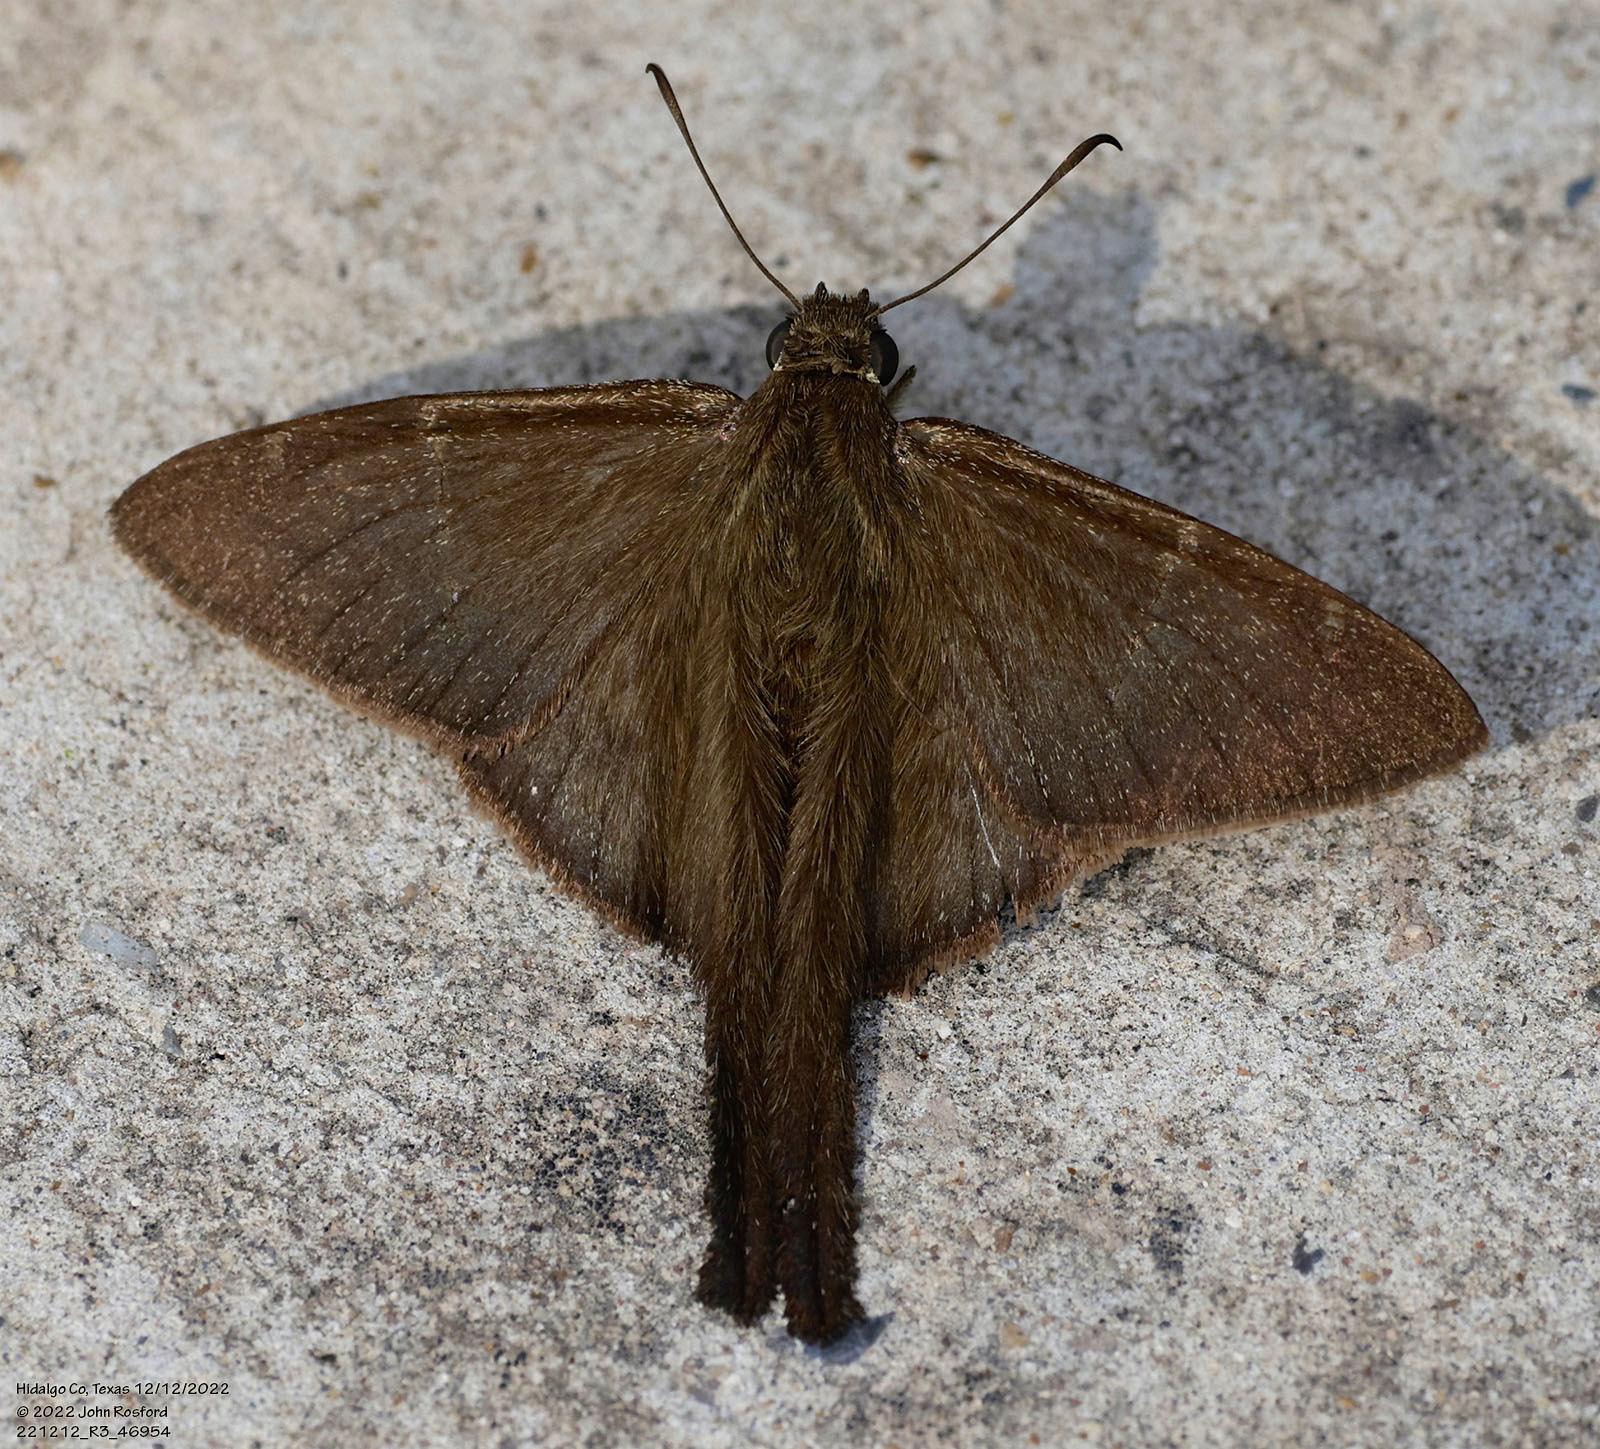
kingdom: Animalia
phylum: Arthropoda
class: Insecta
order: Lepidoptera
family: Hesperiidae
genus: Urbanus
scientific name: Urbanus procne
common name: Brown longtail
